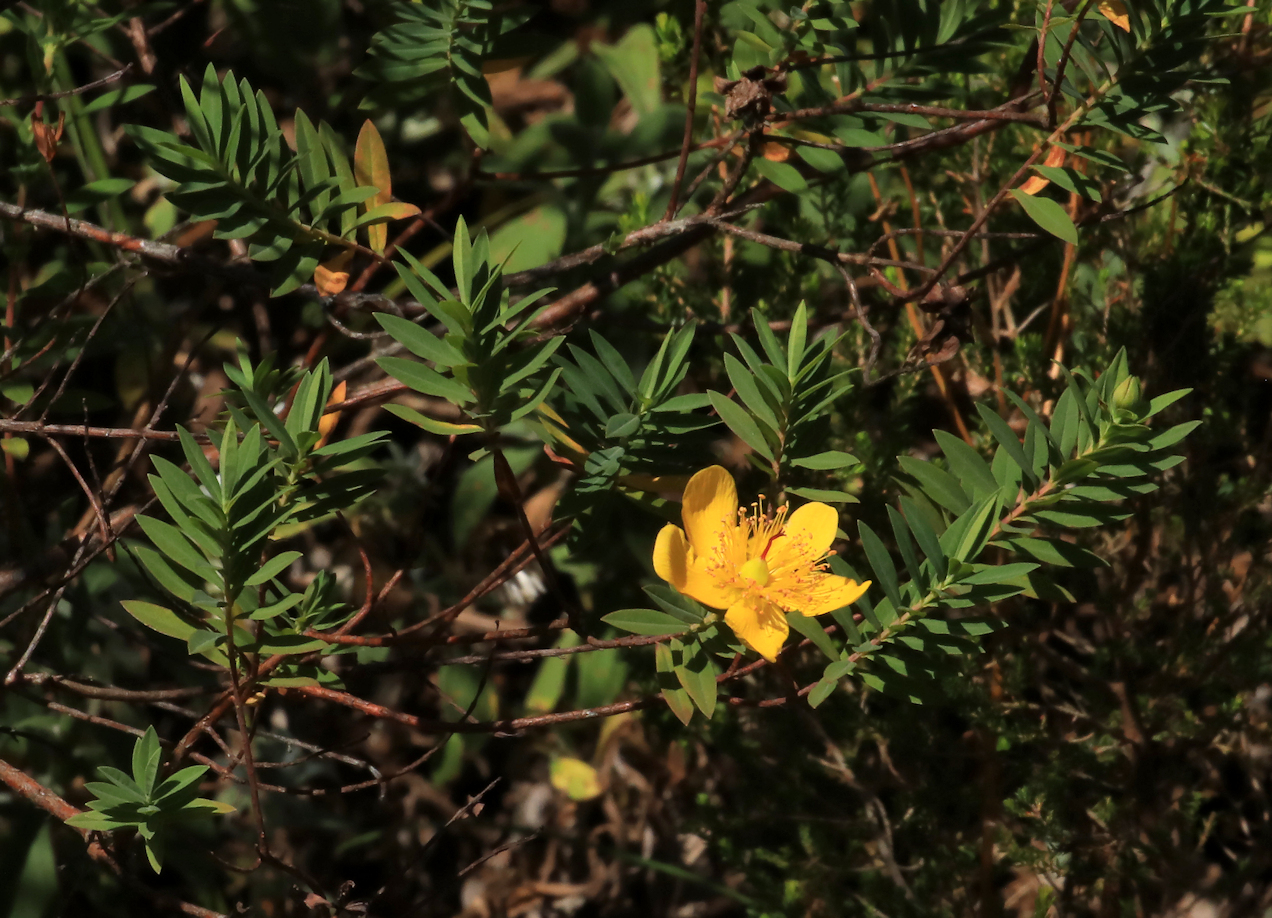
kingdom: Plantae
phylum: Tracheophyta
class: Magnoliopsida
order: Malpighiales
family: Hypericaceae
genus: Hypericum
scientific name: Hypericum revolutum
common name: Curry bush
